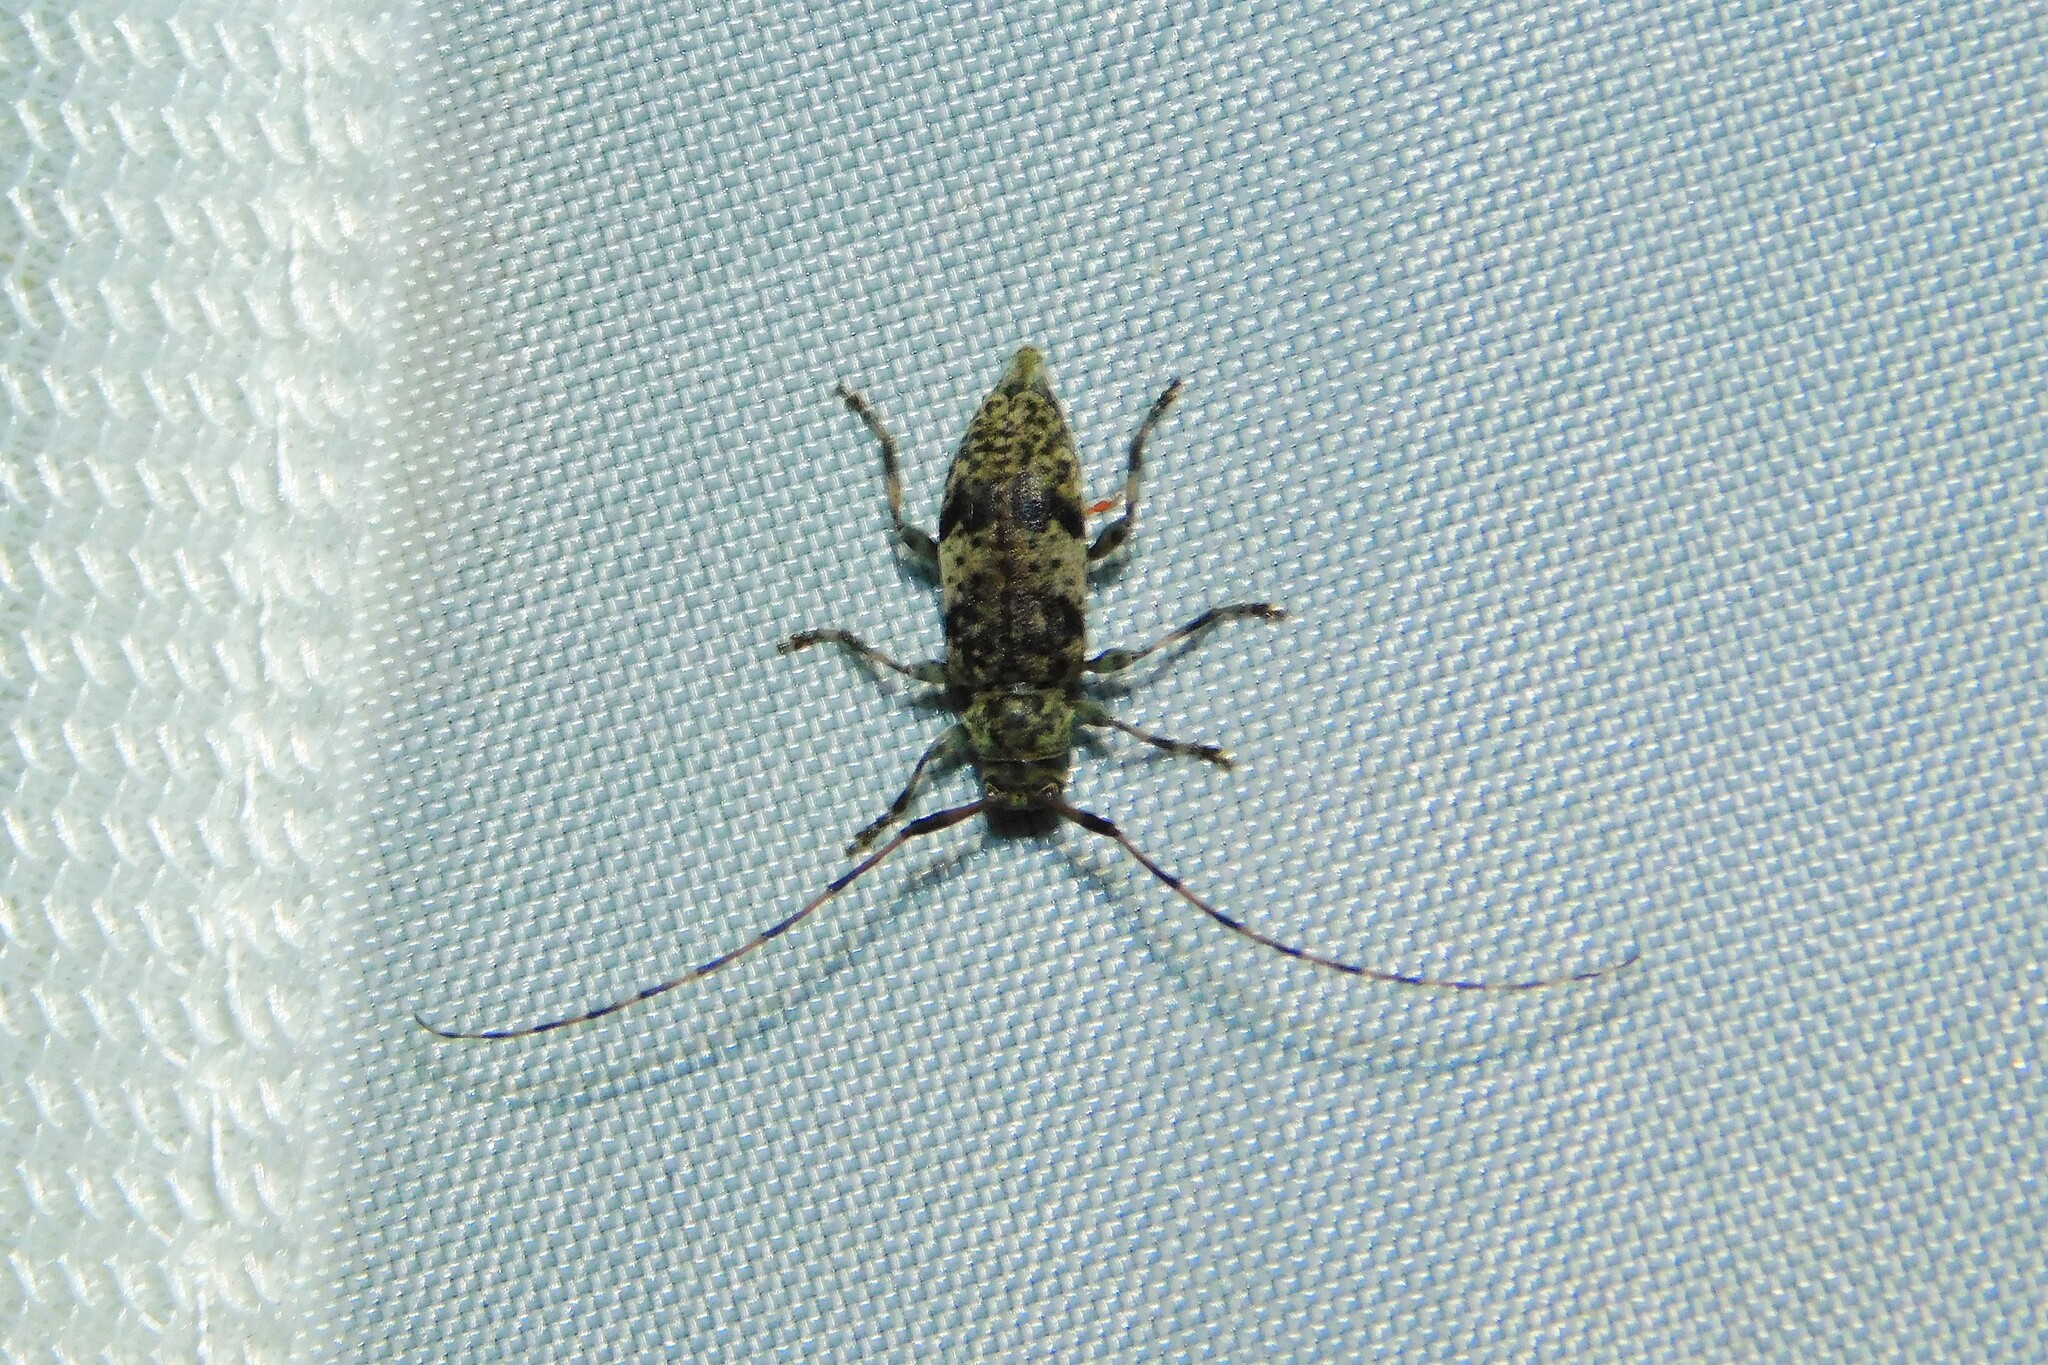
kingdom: Animalia
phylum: Arthropoda
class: Insecta
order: Coleoptera
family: Cerambycidae
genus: Leiopus
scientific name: Leiopus
